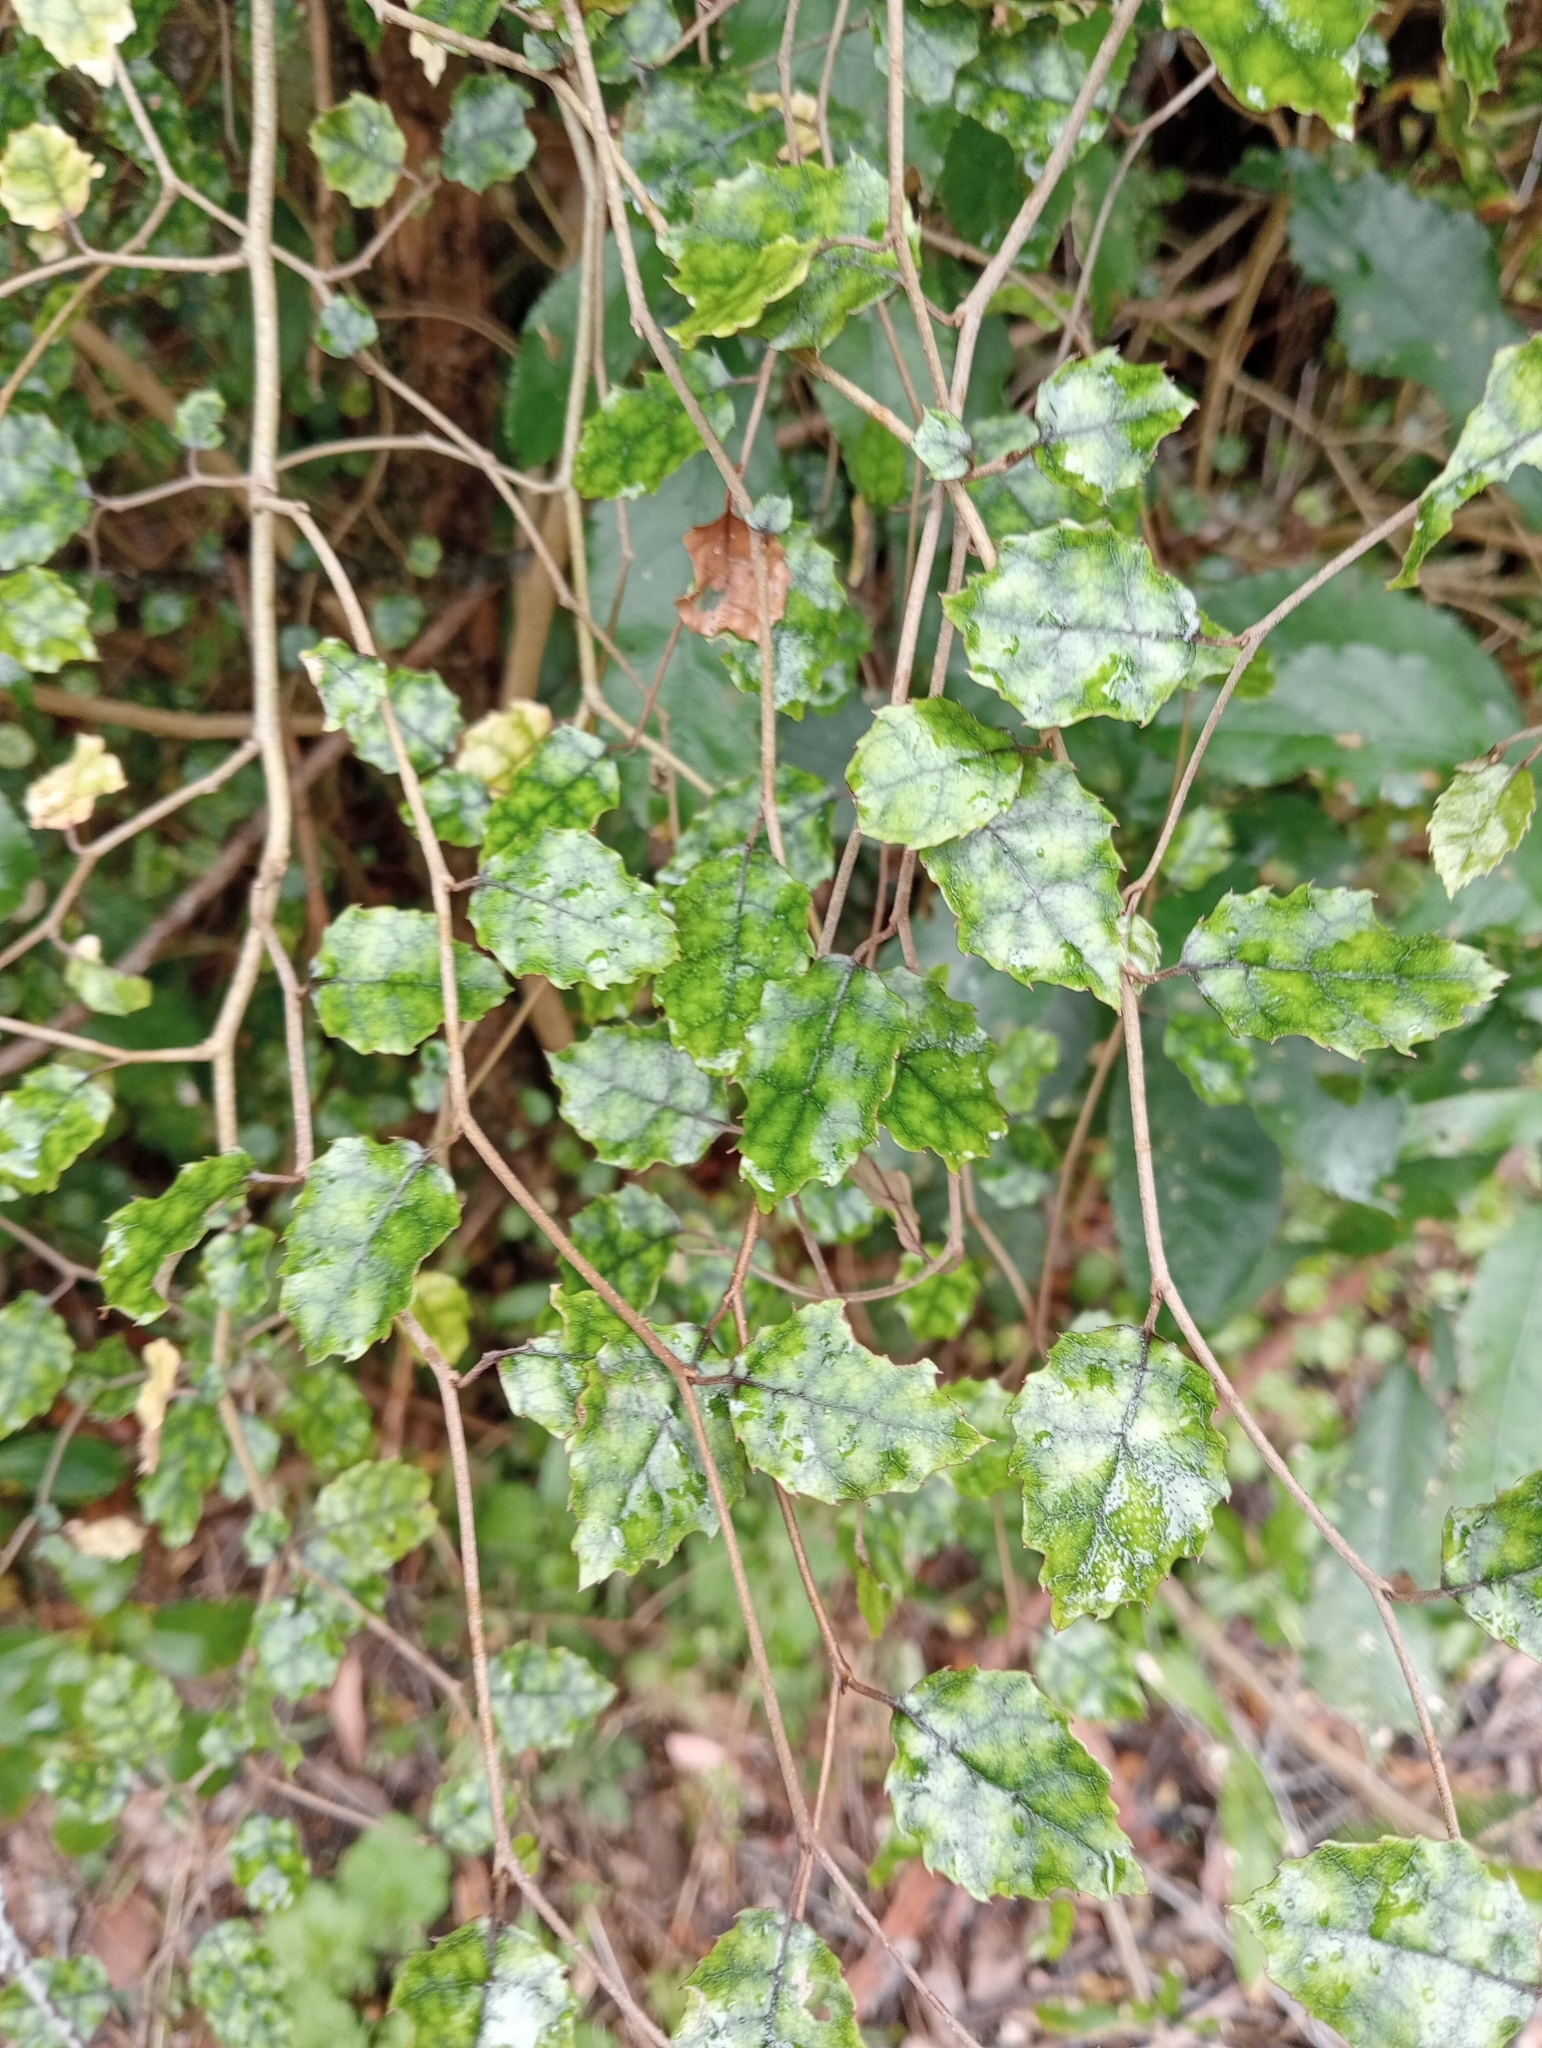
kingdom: Plantae
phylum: Tracheophyta
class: Magnoliopsida
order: Asterales
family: Rousseaceae
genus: Carpodetus
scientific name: Carpodetus serratus
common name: White mapau
